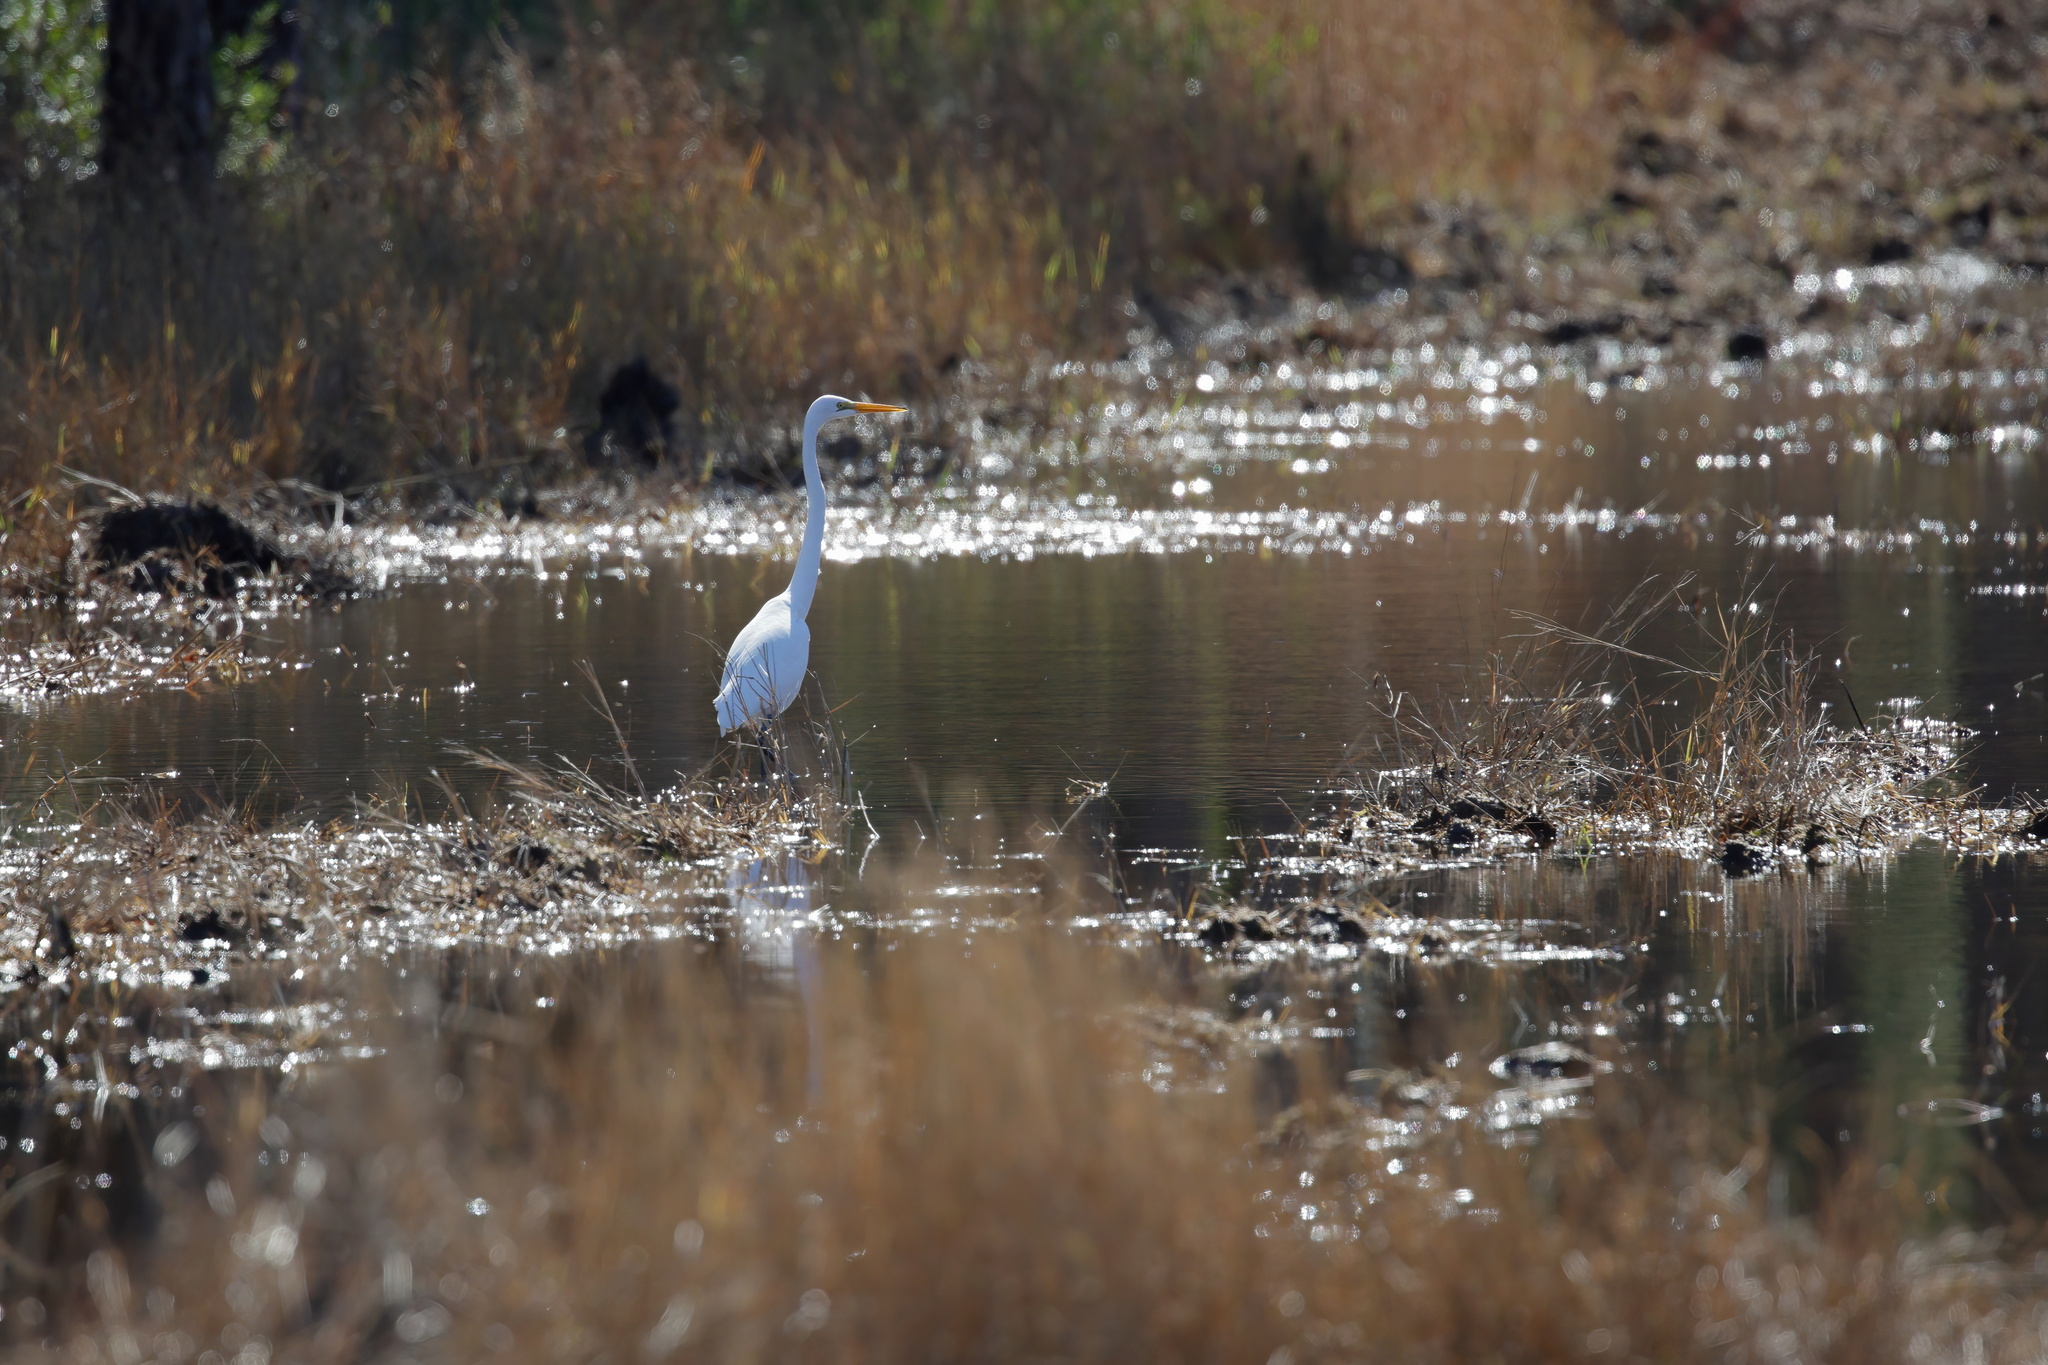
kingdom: Animalia
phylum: Chordata
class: Aves
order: Pelecaniformes
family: Ardeidae
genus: Ardea
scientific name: Ardea alba
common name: Great egret
